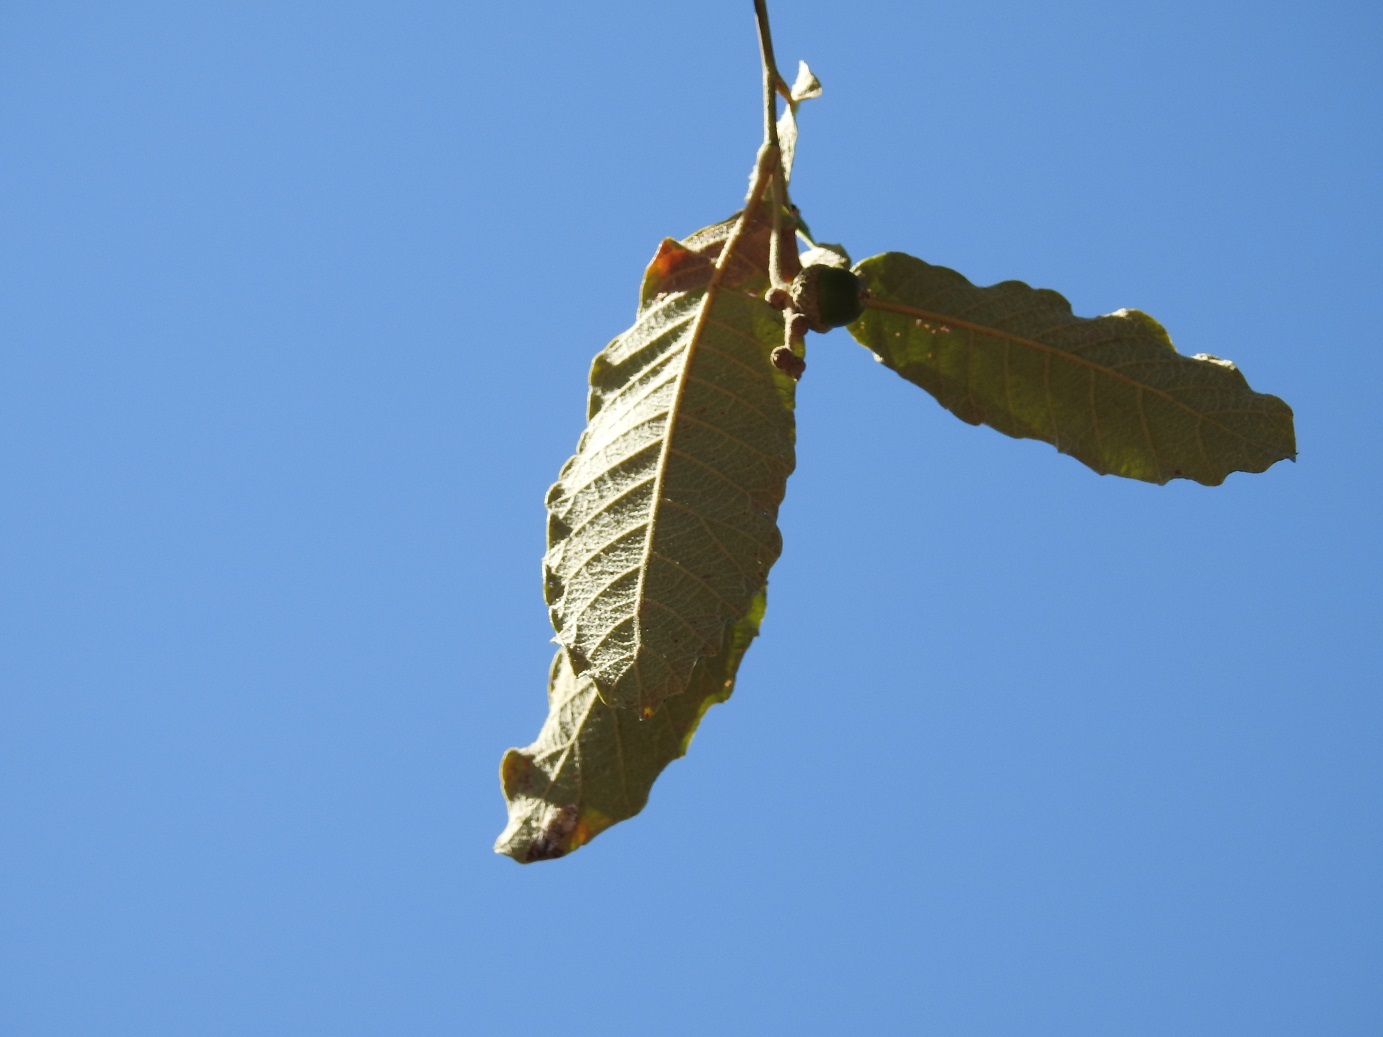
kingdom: Plantae
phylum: Tracheophyta
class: Magnoliopsida
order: Fagales
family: Fagaceae
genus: Quercus
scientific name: Quercus peduncularis
